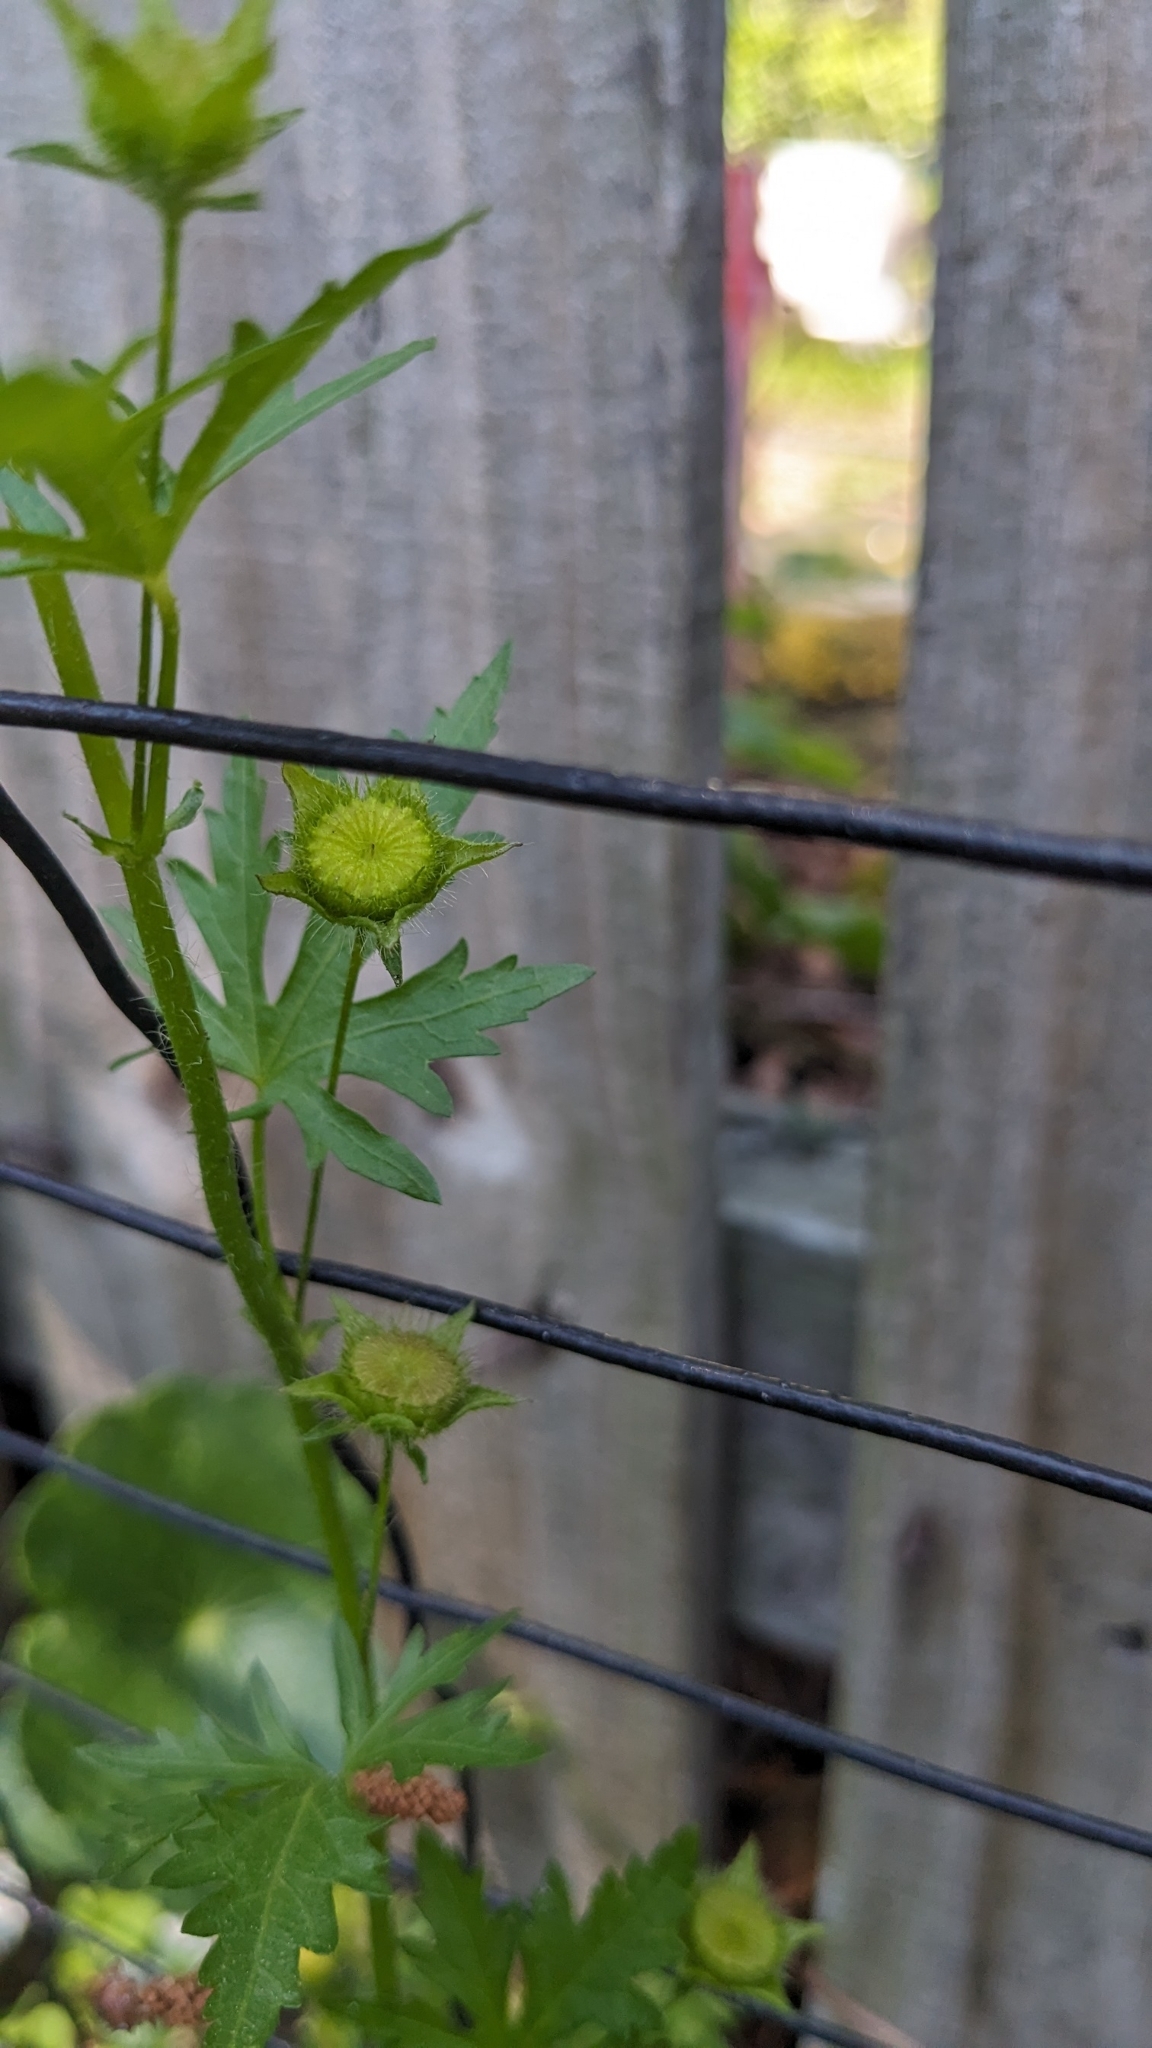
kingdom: Plantae
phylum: Tracheophyta
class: Magnoliopsida
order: Malvales
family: Malvaceae
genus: Modiola
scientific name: Modiola caroliniana
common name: Carolina bristlemallow
